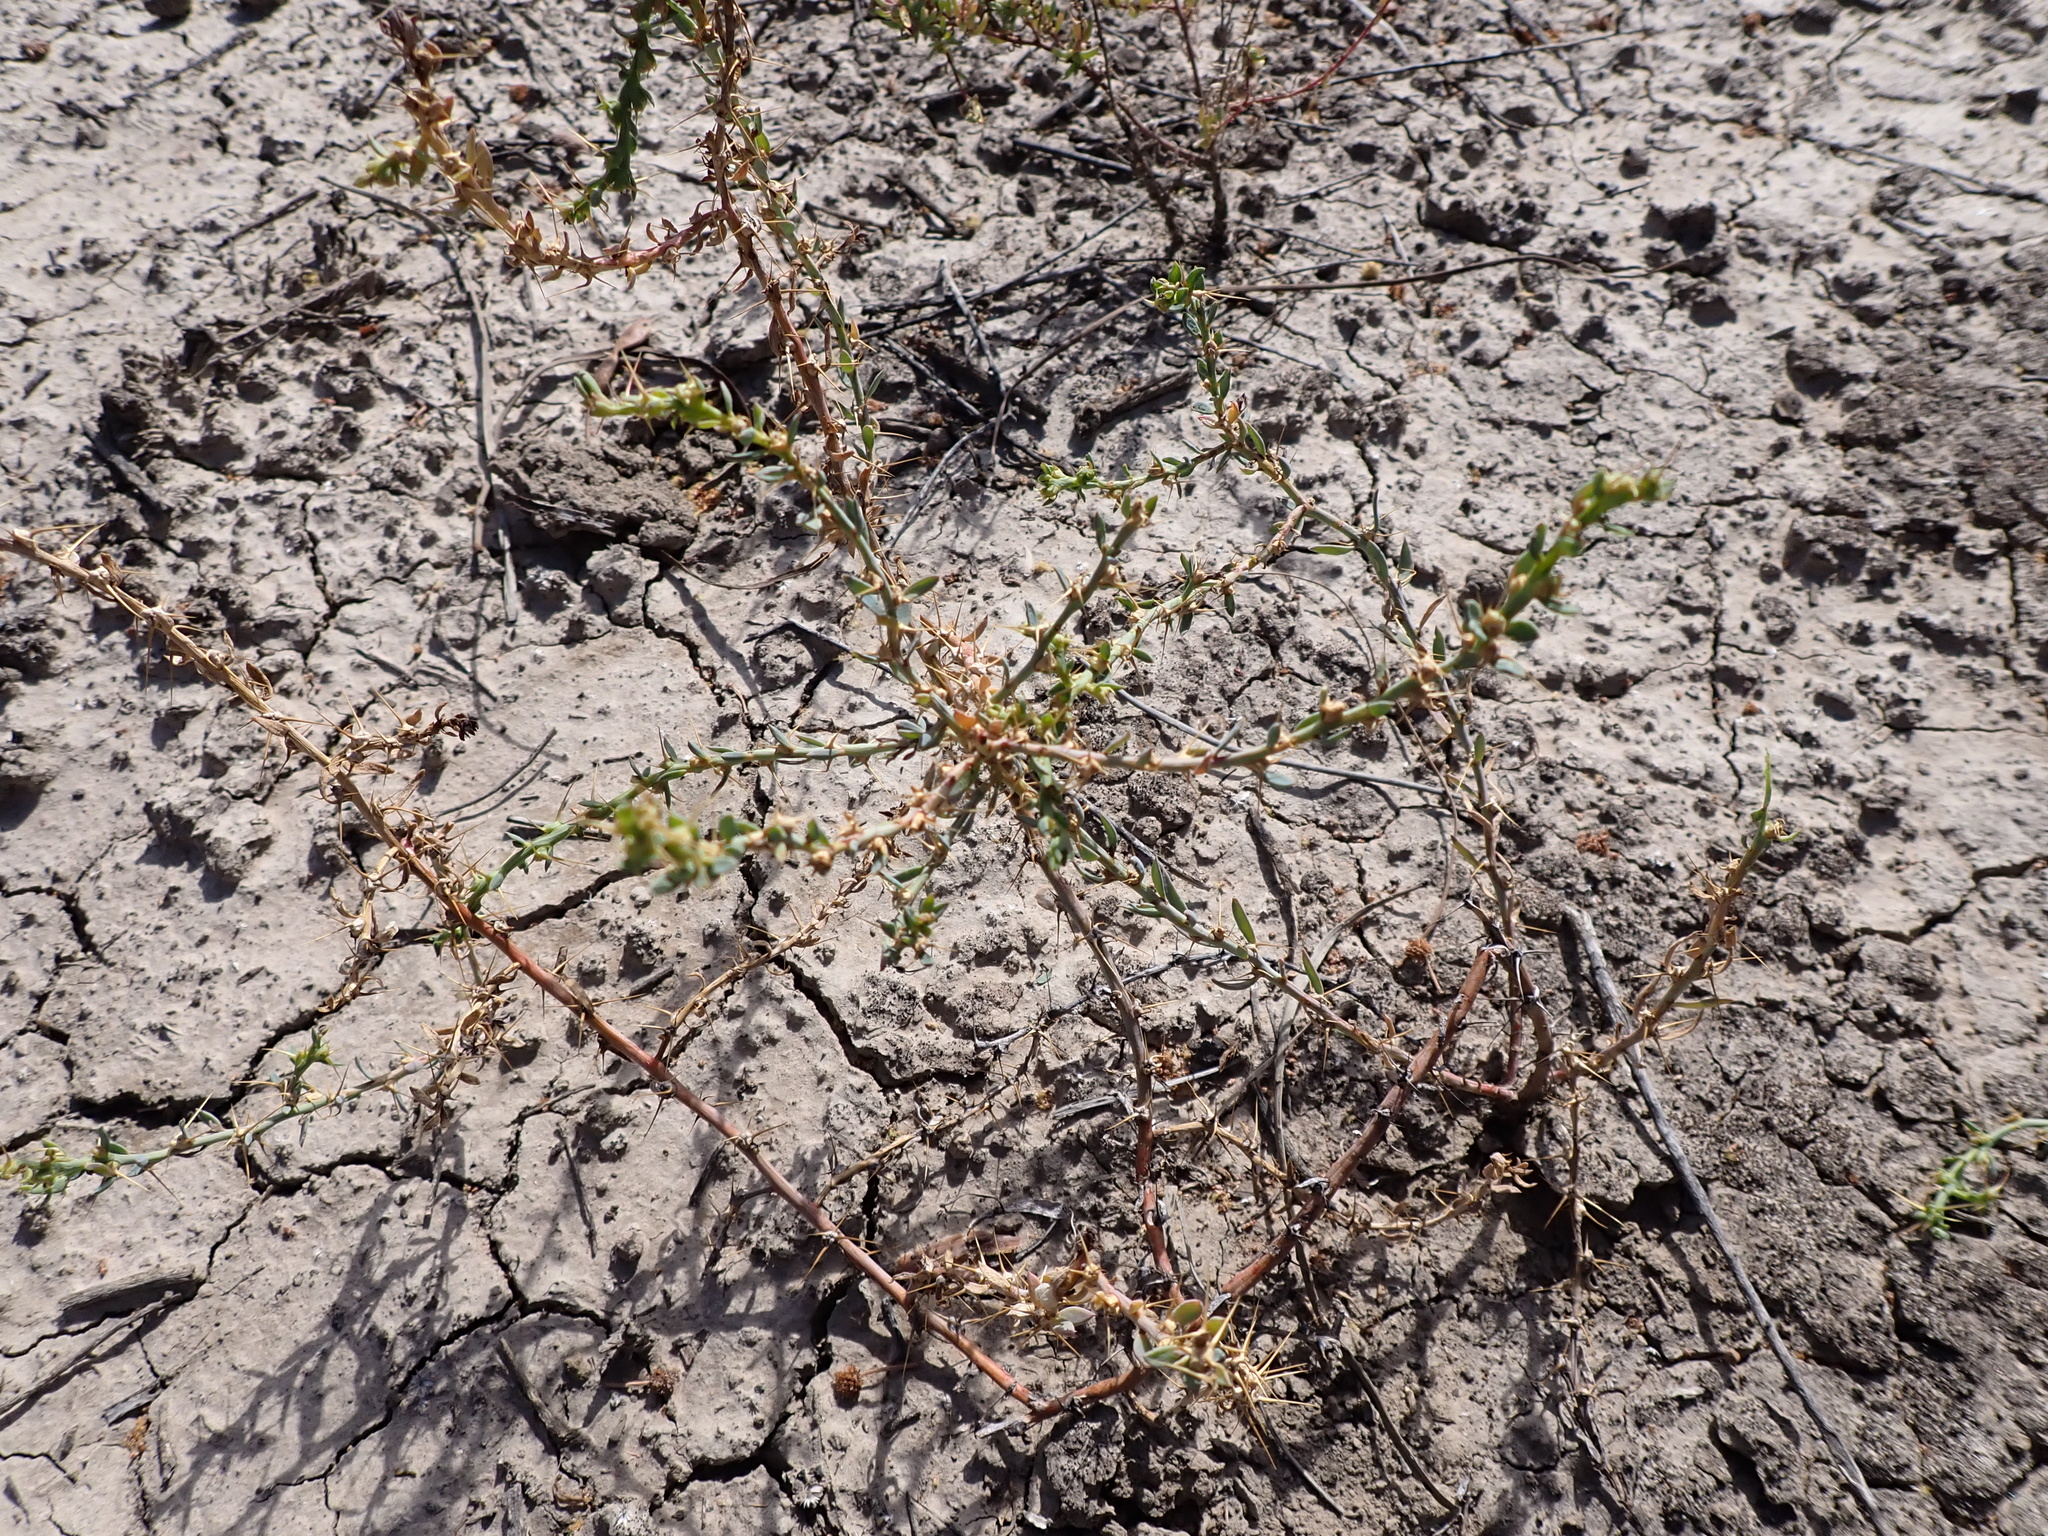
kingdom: Plantae
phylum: Tracheophyta
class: Magnoliopsida
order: Caryophyllales
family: Amaranthaceae
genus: Sclerolaena
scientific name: Sclerolaena muricata
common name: Roly-poly
